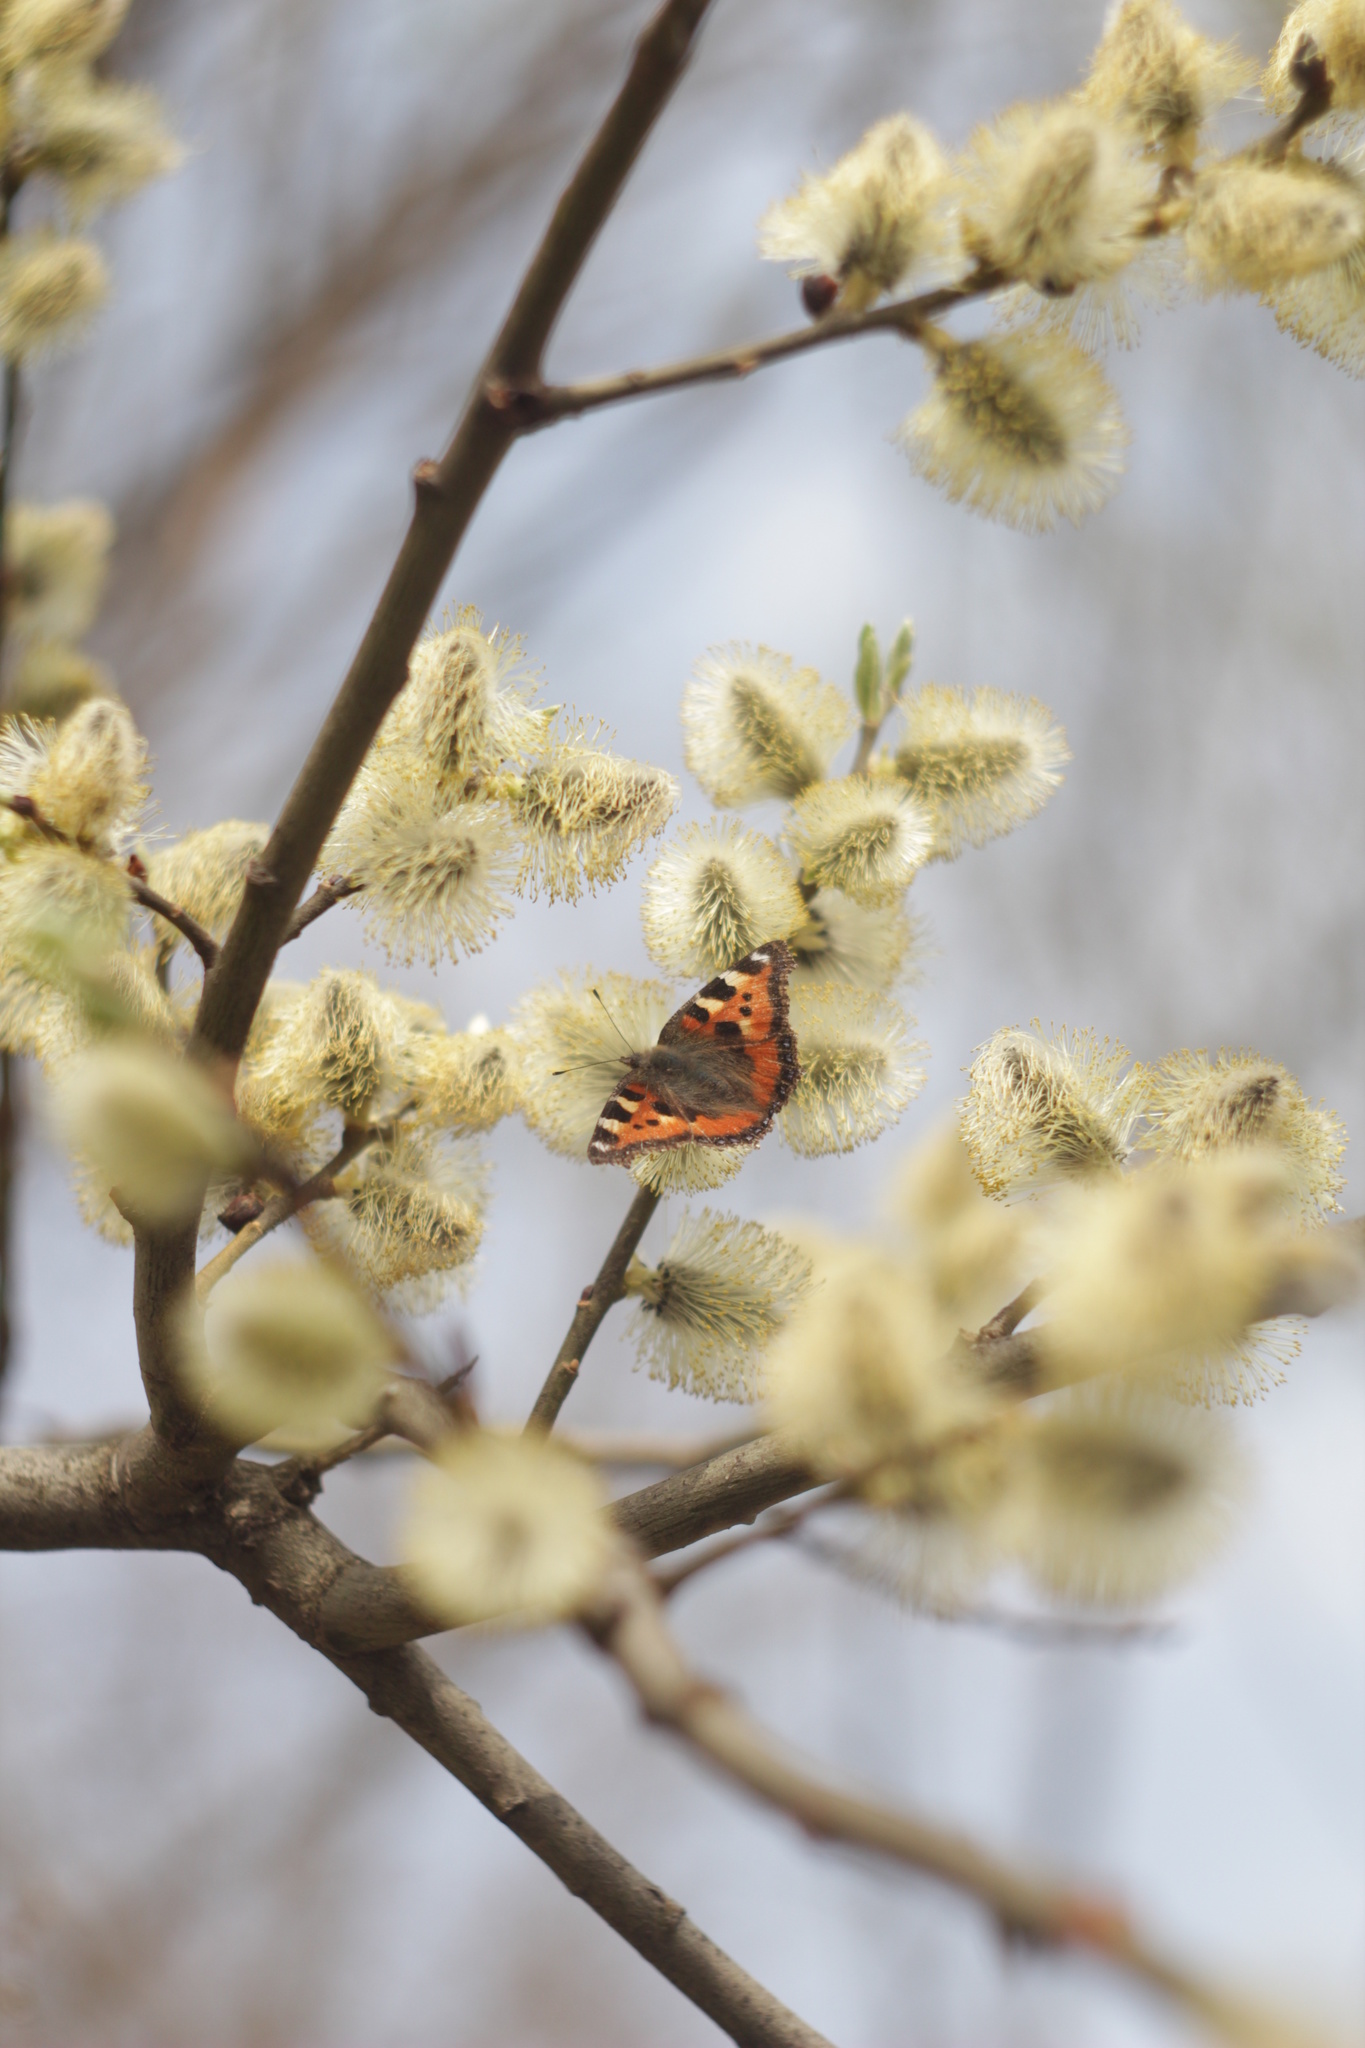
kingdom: Animalia
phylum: Arthropoda
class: Insecta
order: Lepidoptera
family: Nymphalidae
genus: Aglais
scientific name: Aglais urticae
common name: Small tortoiseshell
